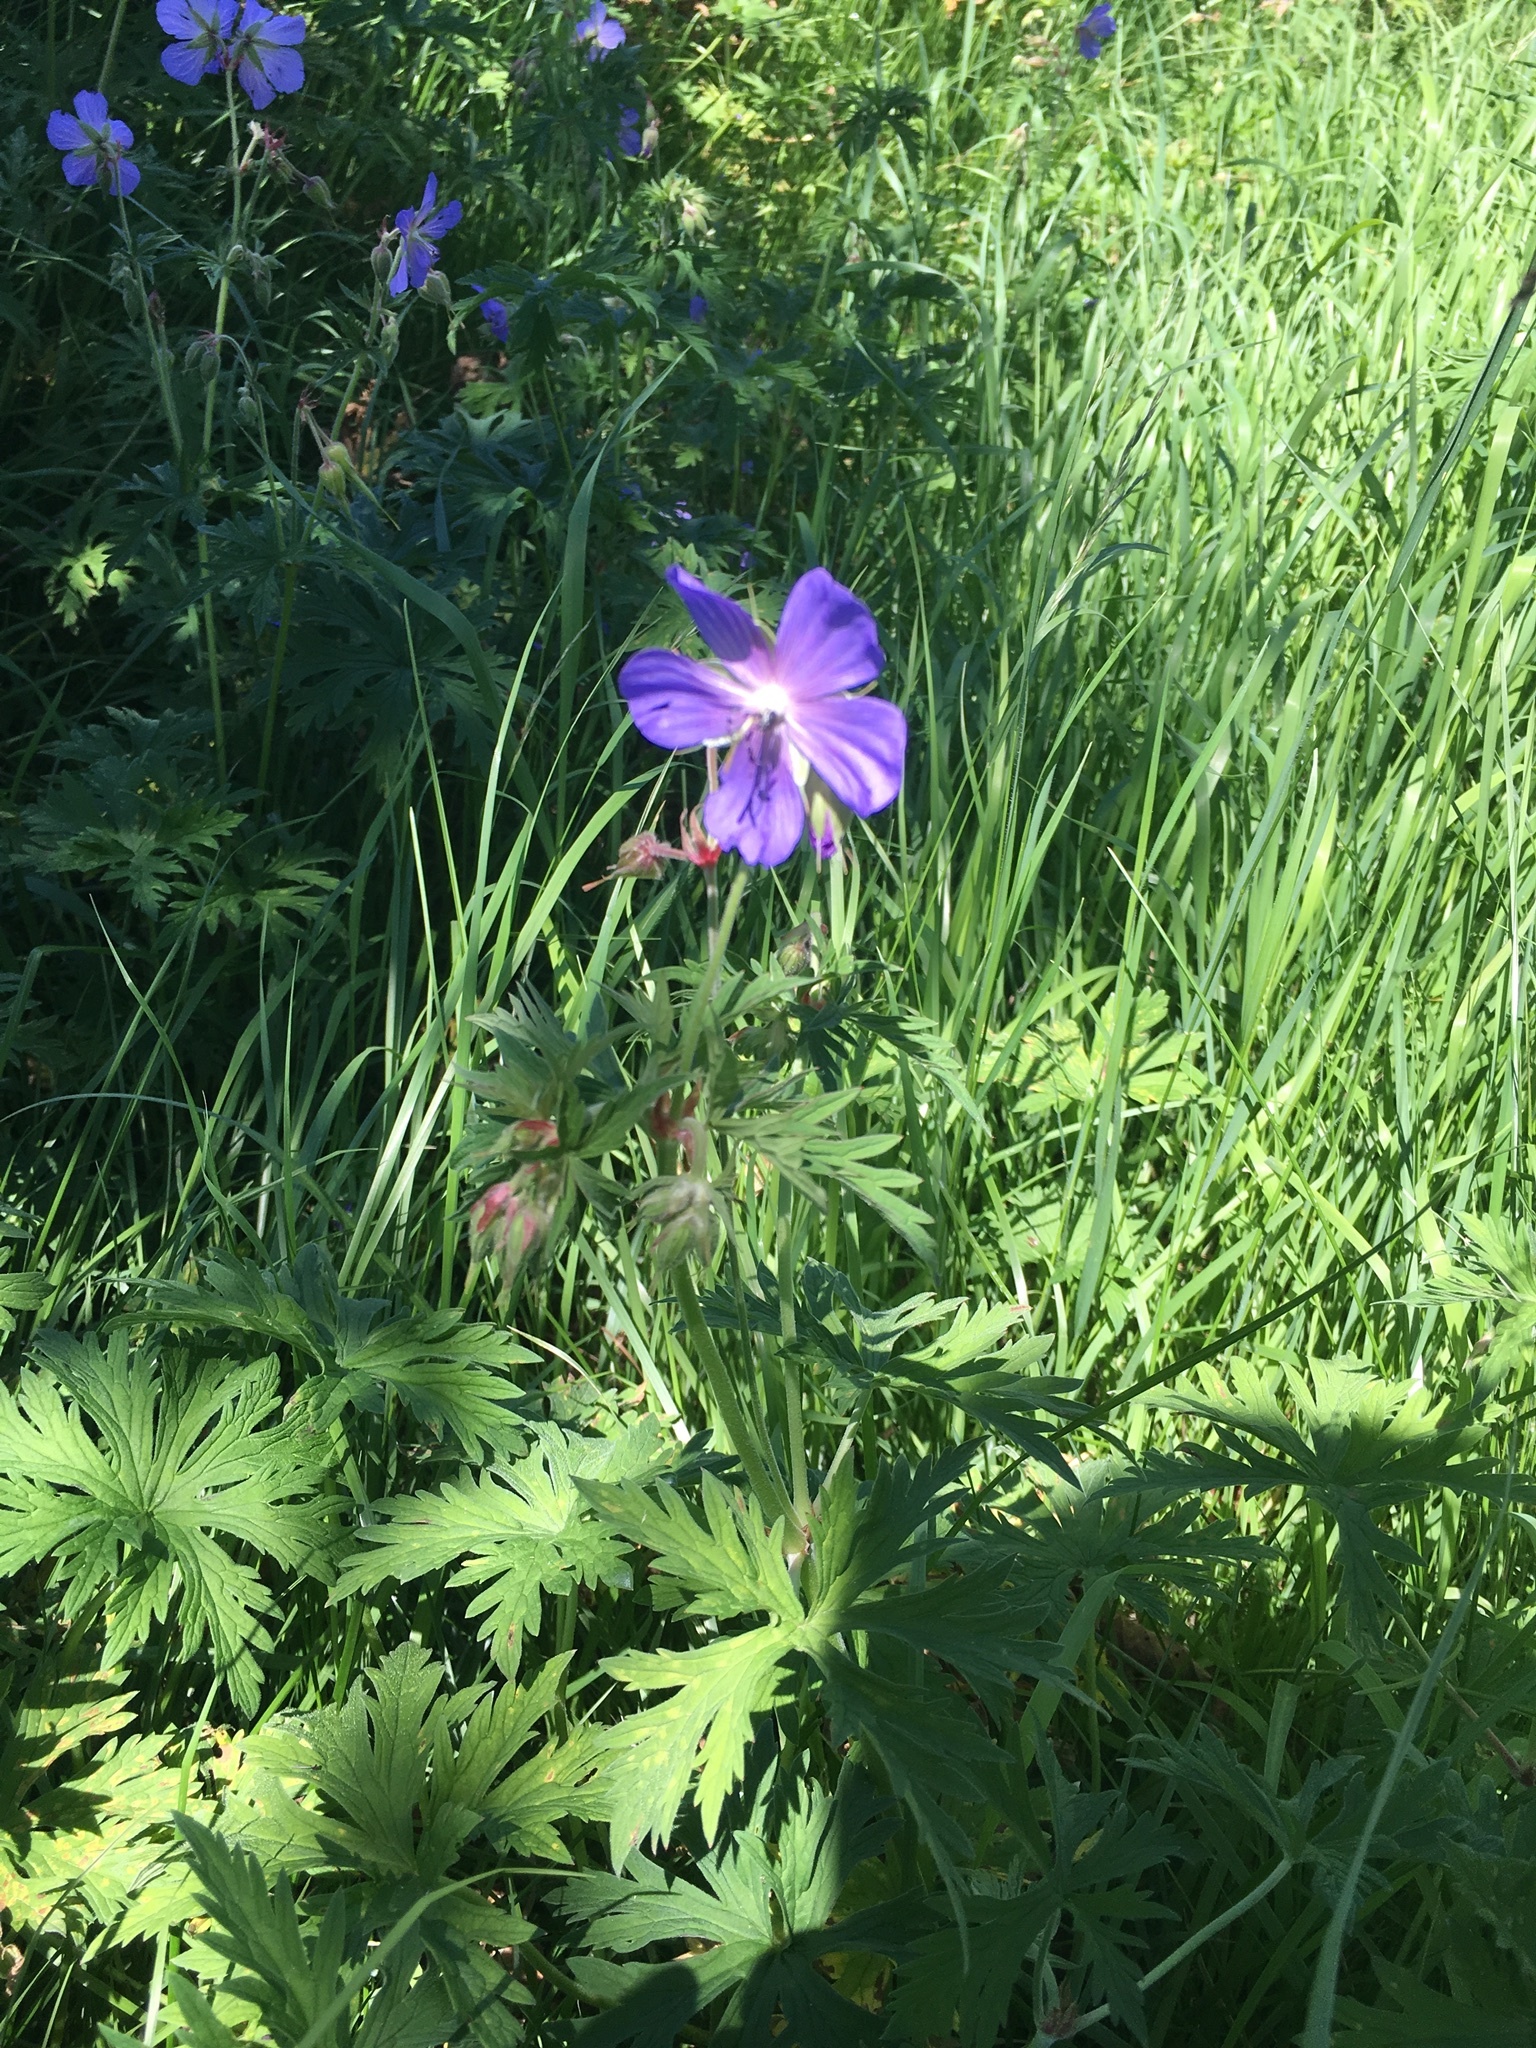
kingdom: Plantae
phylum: Tracheophyta
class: Magnoliopsida
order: Geraniales
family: Geraniaceae
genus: Geranium
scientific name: Geranium pratense
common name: Meadow crane's-bill
